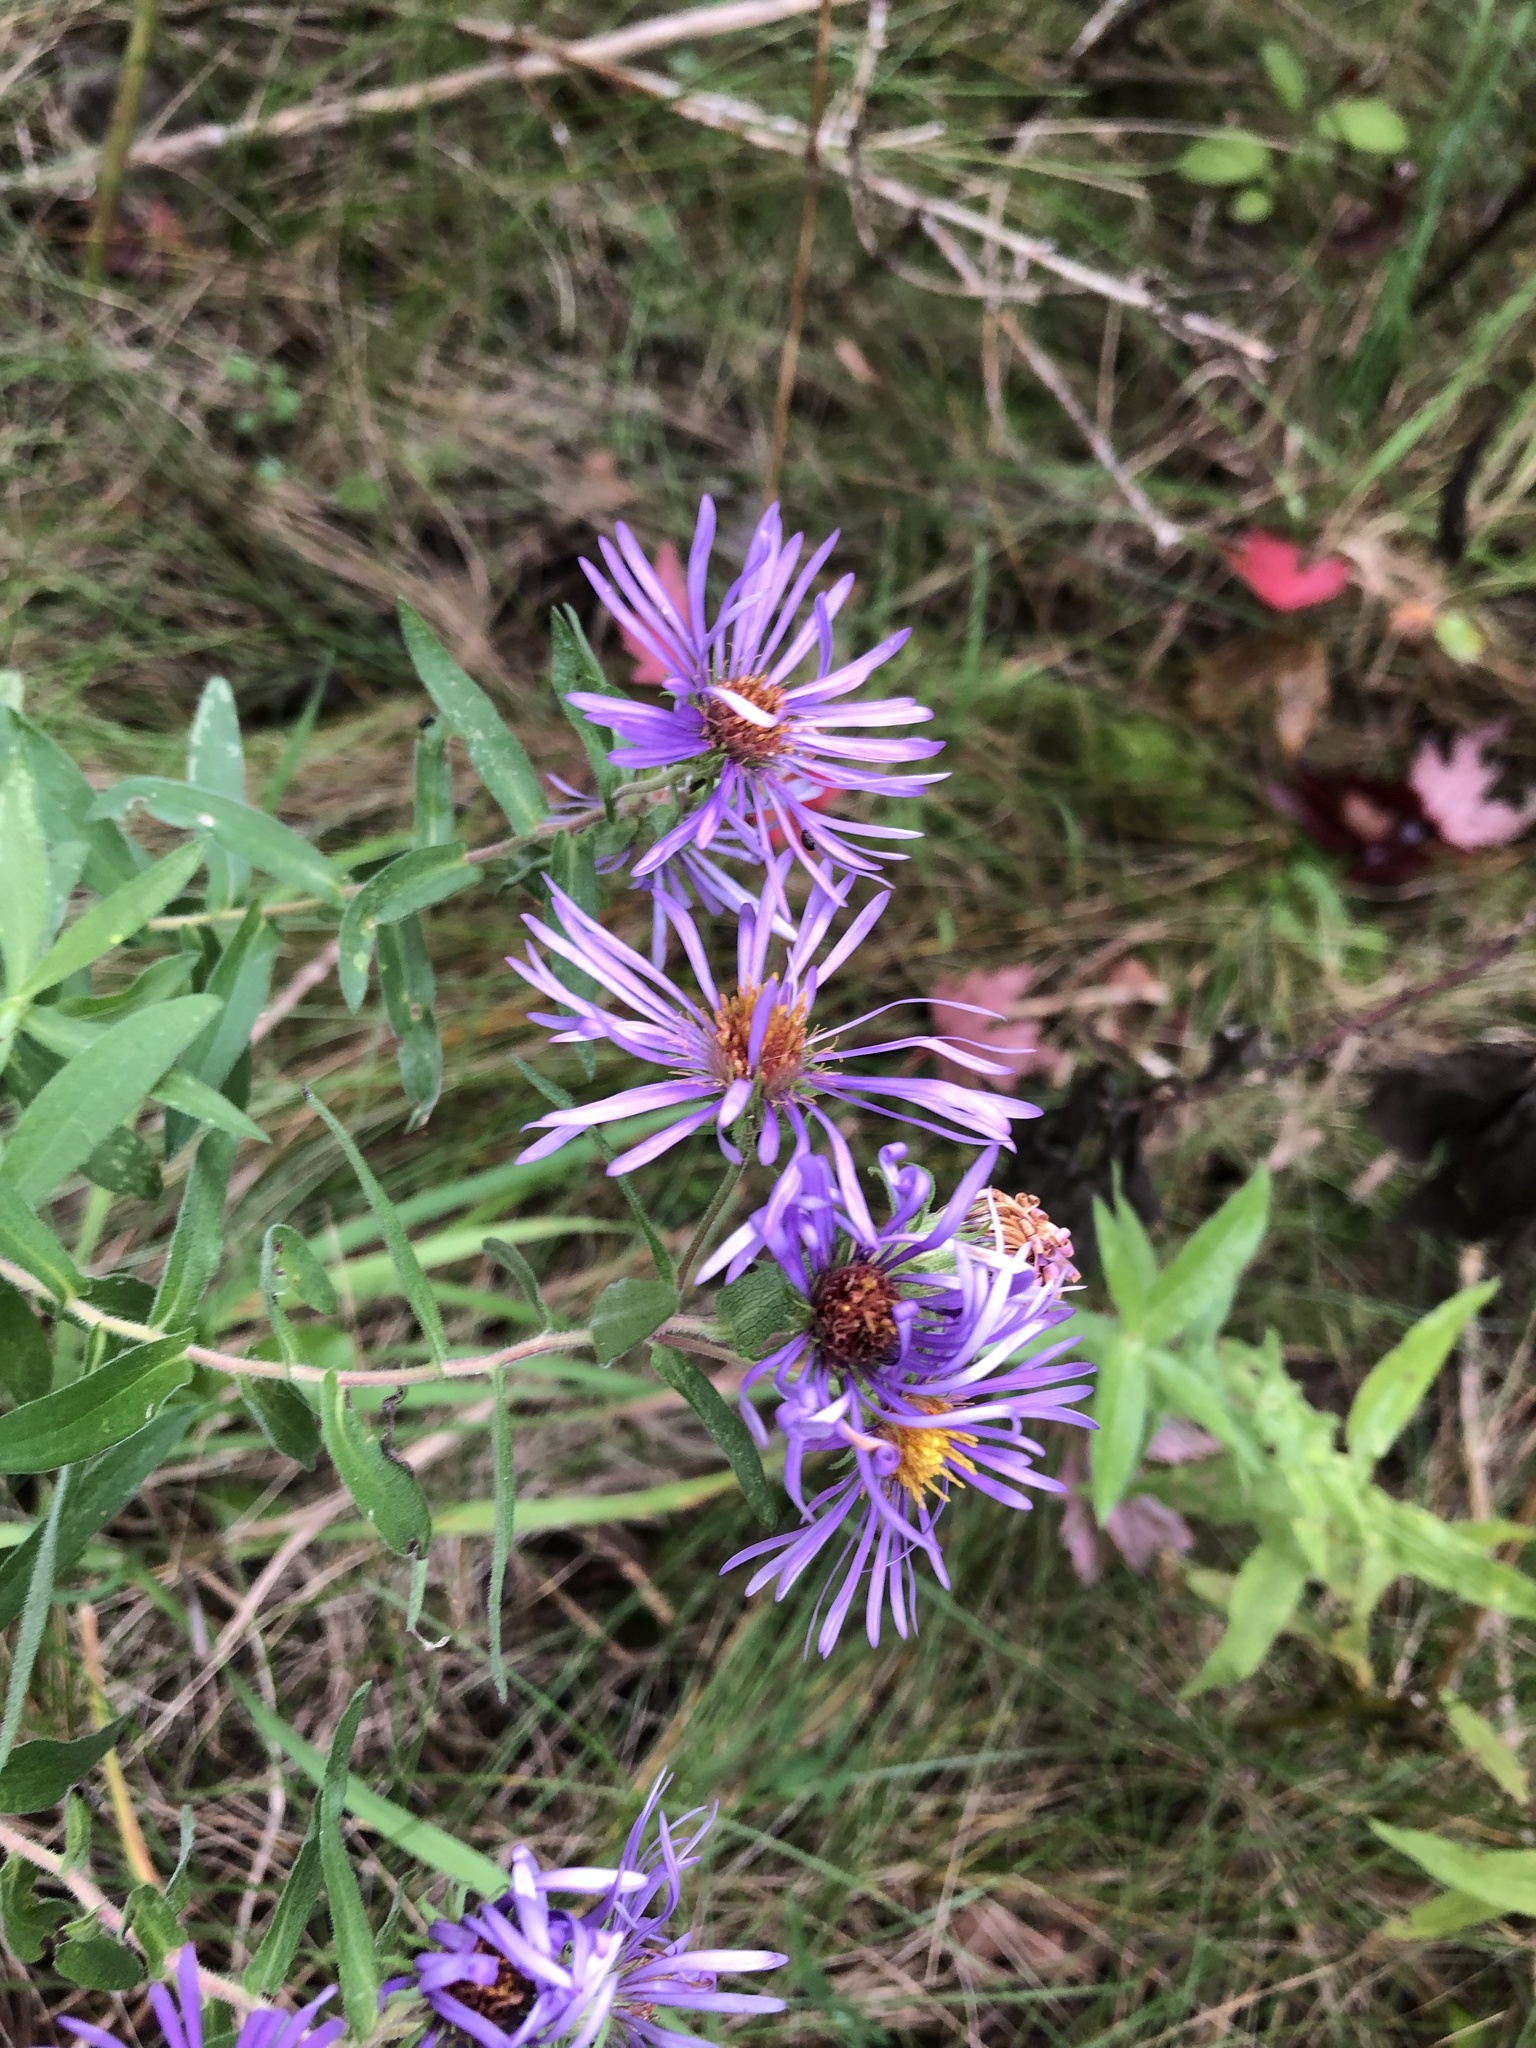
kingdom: Plantae
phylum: Tracheophyta
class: Magnoliopsida
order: Asterales
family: Asteraceae
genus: Symphyotrichum
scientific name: Symphyotrichum novae-angliae
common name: Michaelmas daisy
